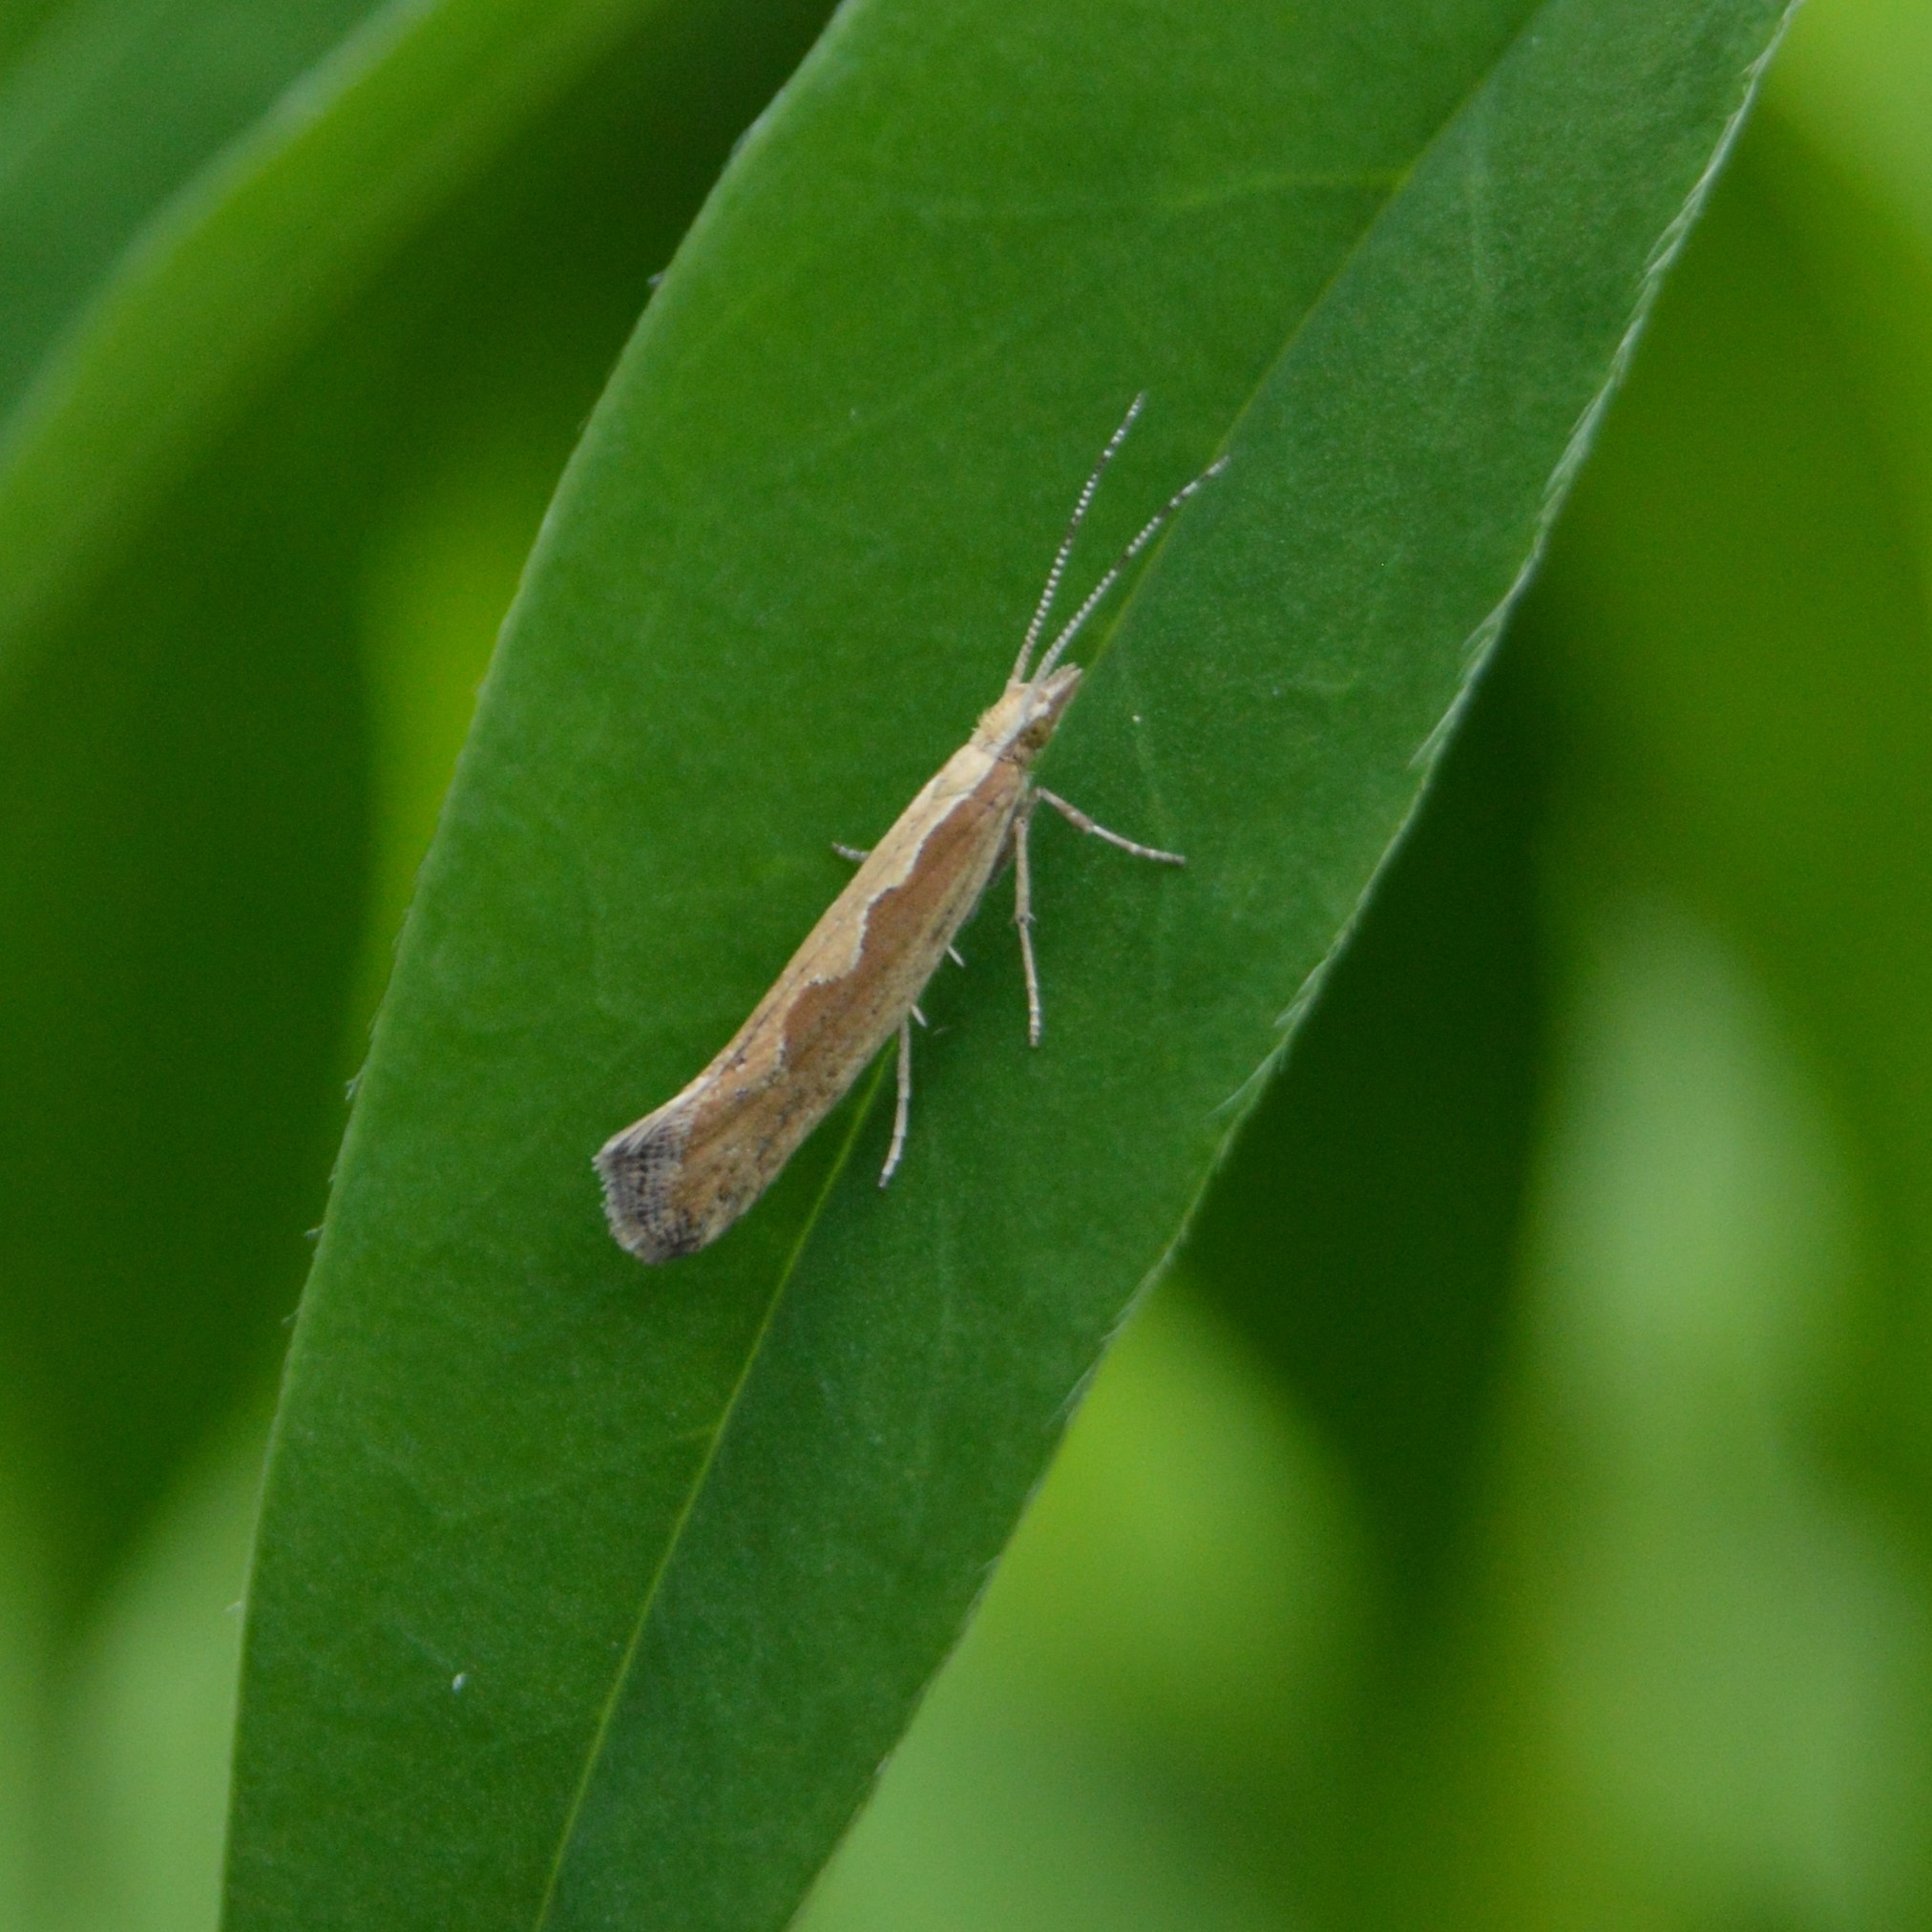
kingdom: Animalia
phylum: Arthropoda
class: Insecta
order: Lepidoptera
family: Plutellidae
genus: Plutella
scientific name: Plutella xylostella
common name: Diamond-back moth
